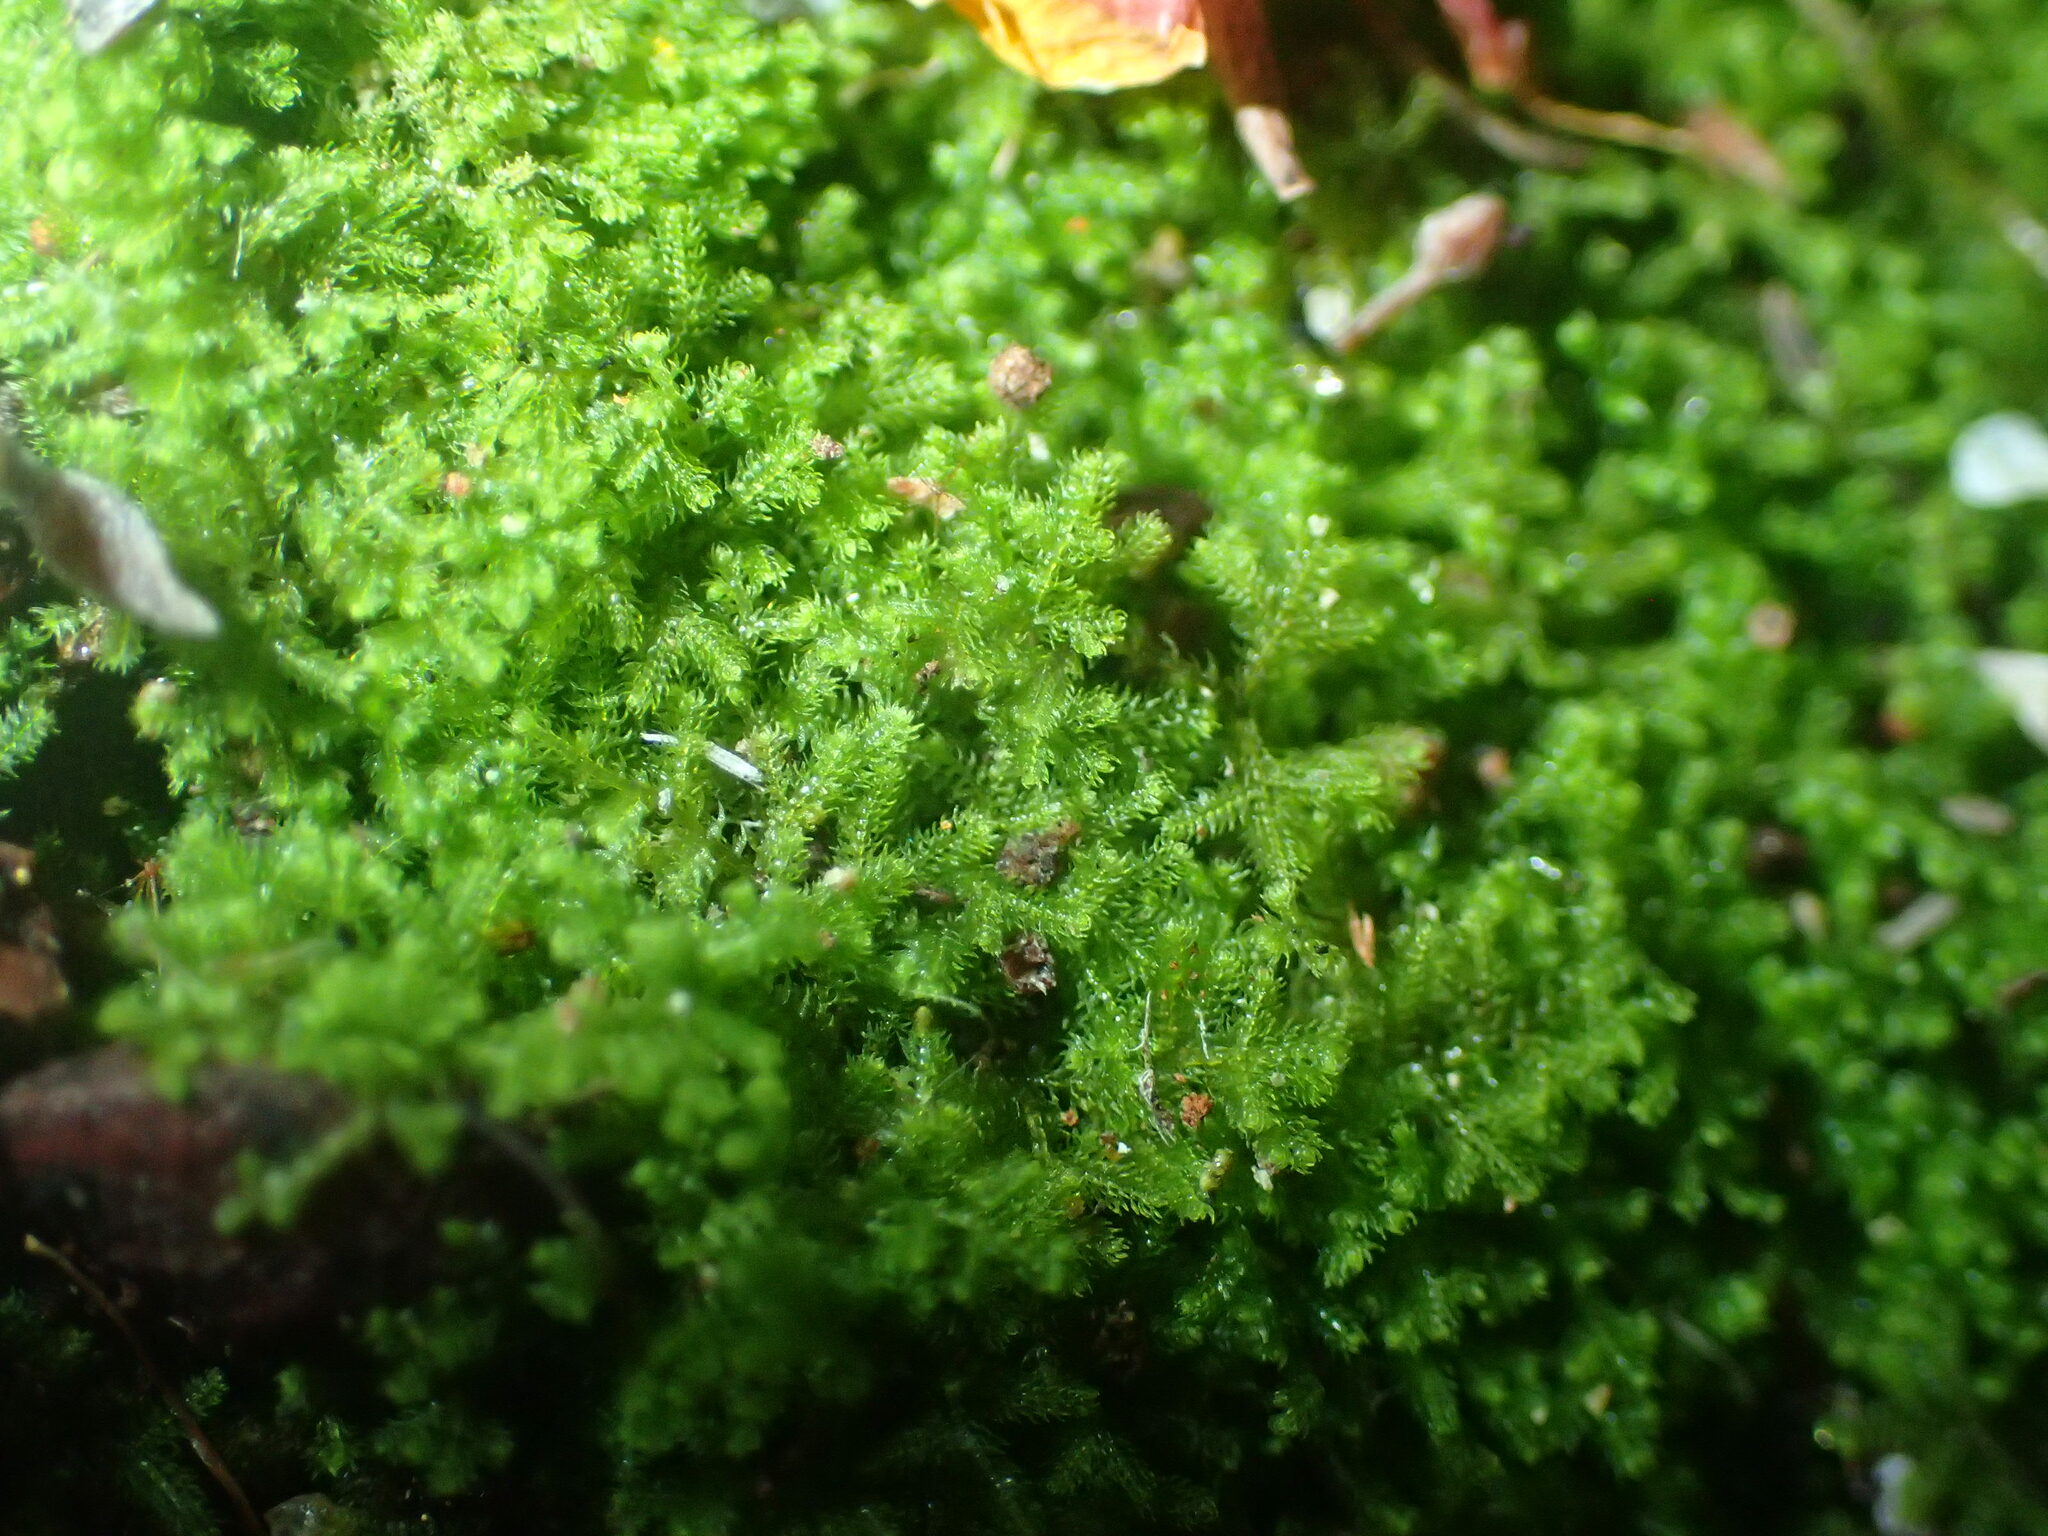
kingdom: Plantae
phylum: Marchantiophyta
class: Jungermanniopsida
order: Jungermanniales
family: Lepidoziaceae
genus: Kurzia
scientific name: Kurzia compacta
